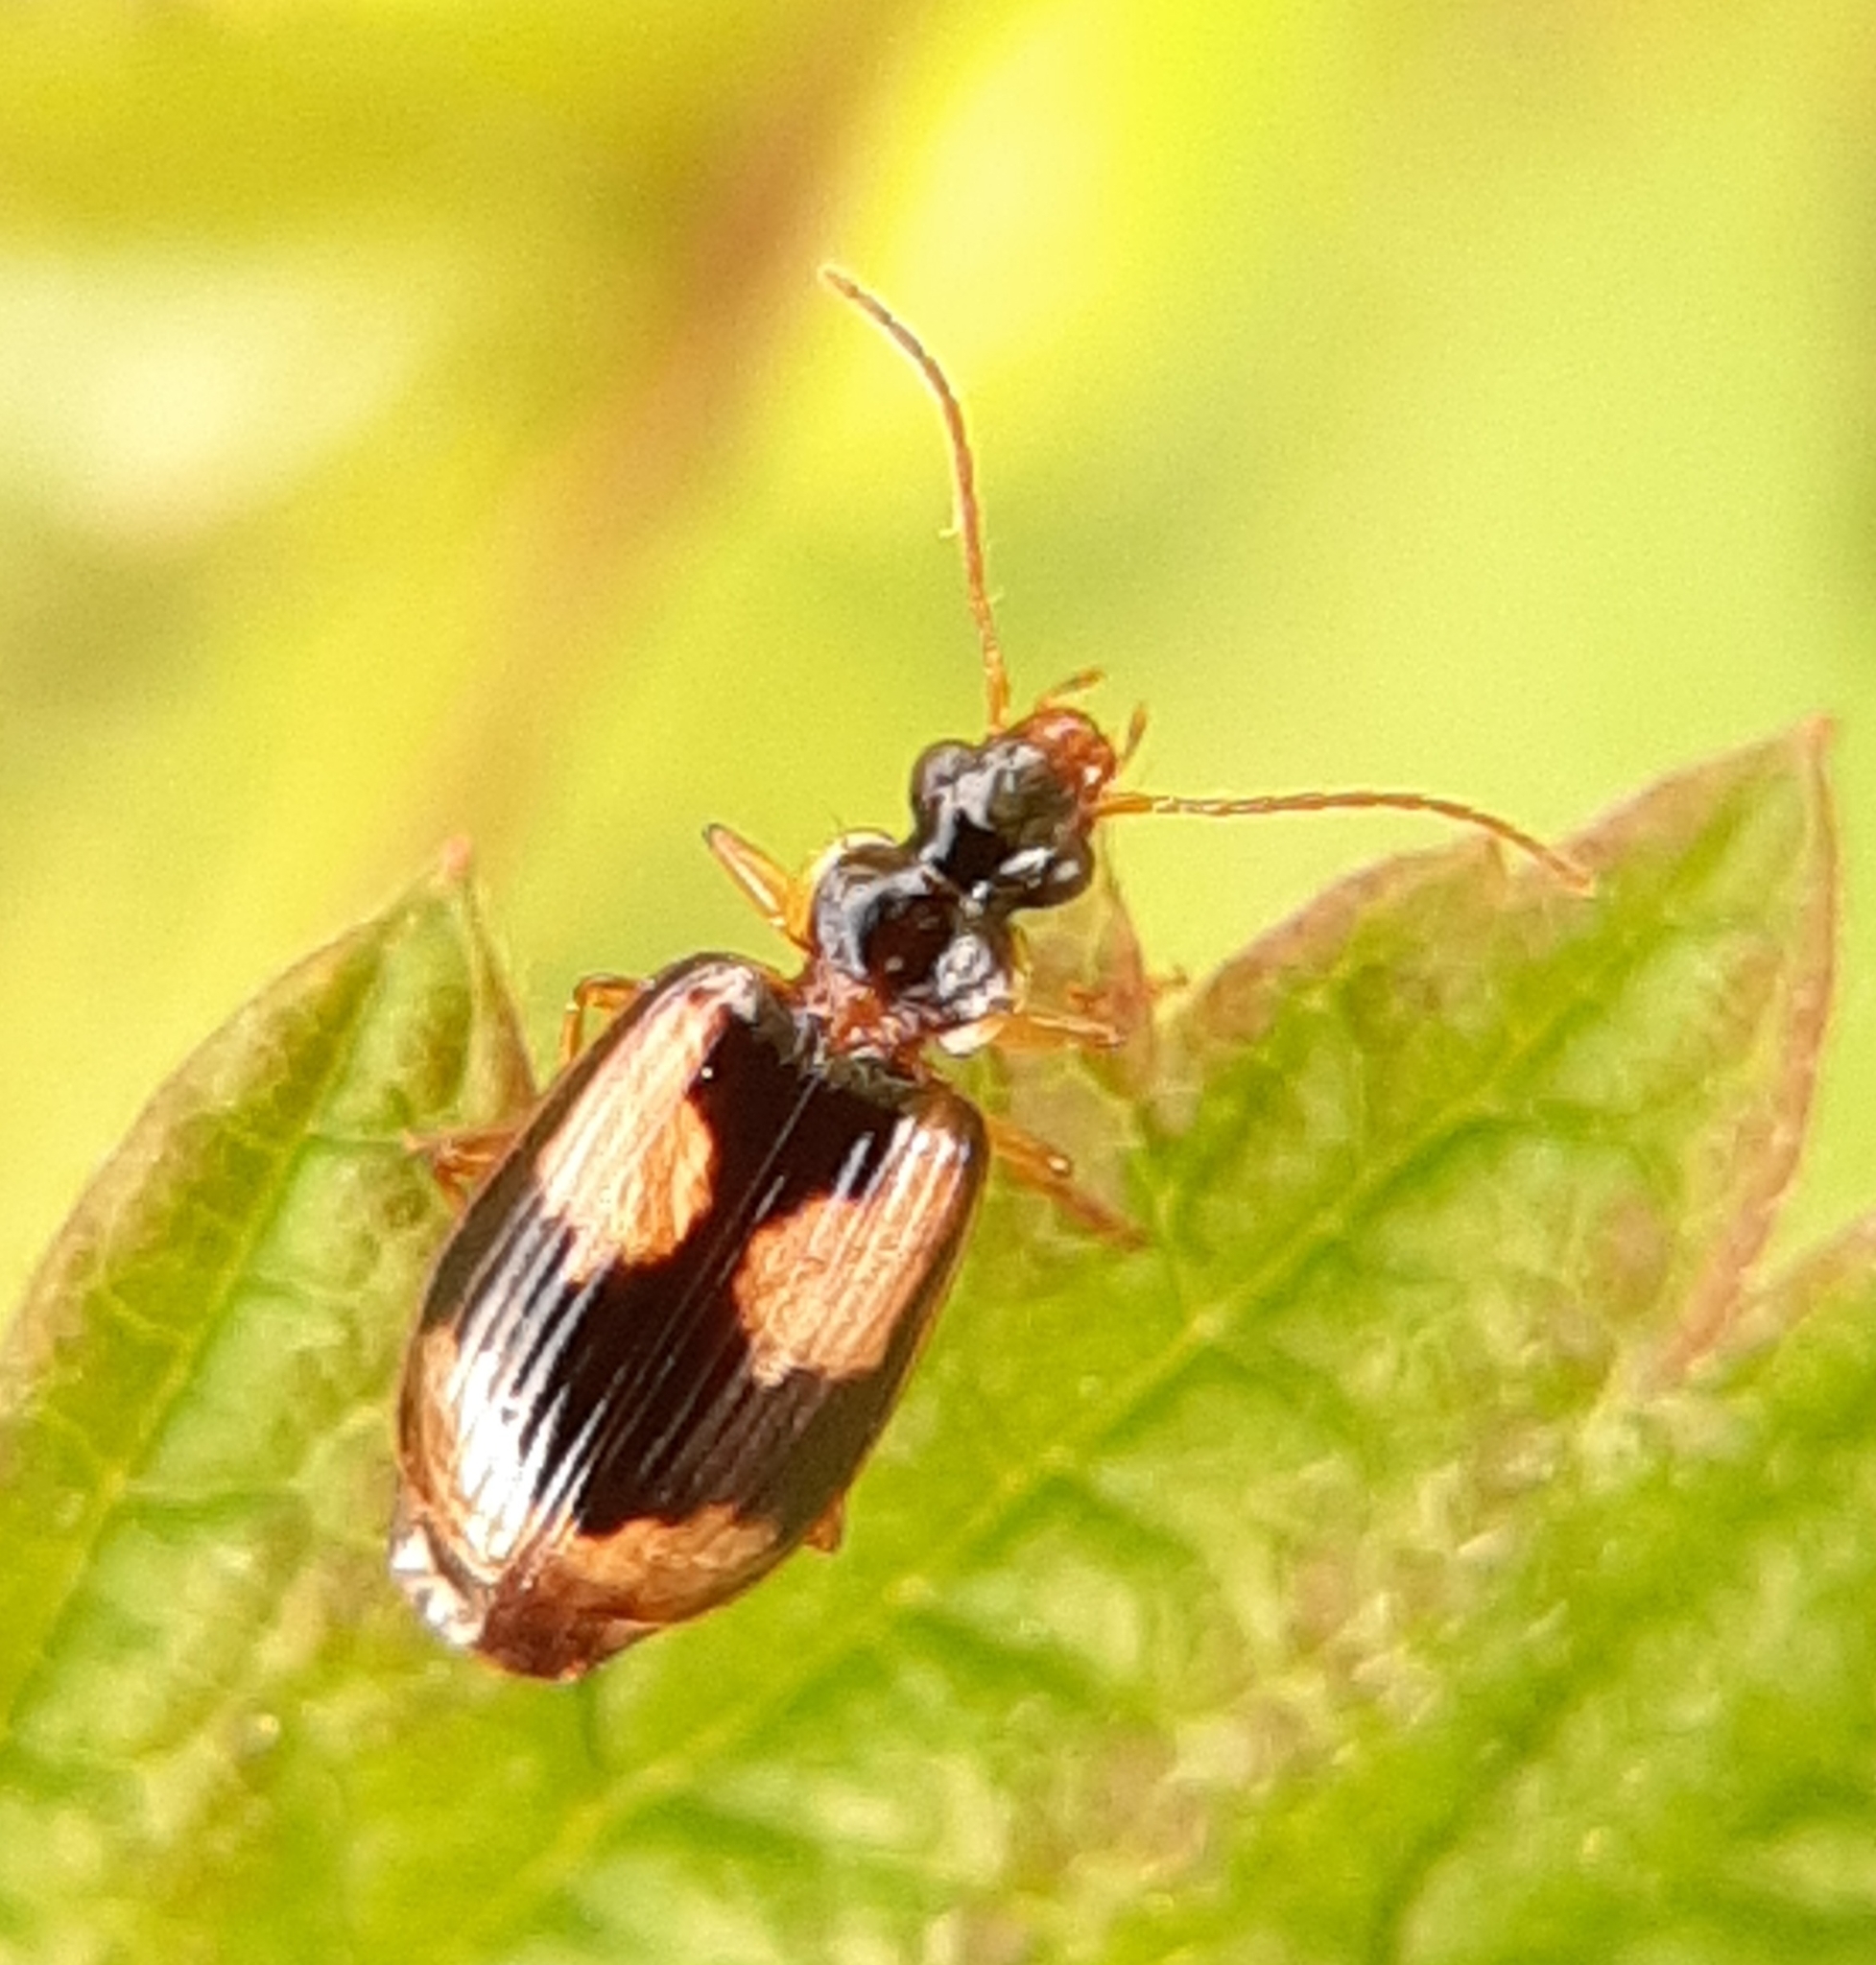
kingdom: Animalia
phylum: Arthropoda
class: Insecta
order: Coleoptera
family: Carabidae
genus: Lebia
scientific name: Lebia fuscata
